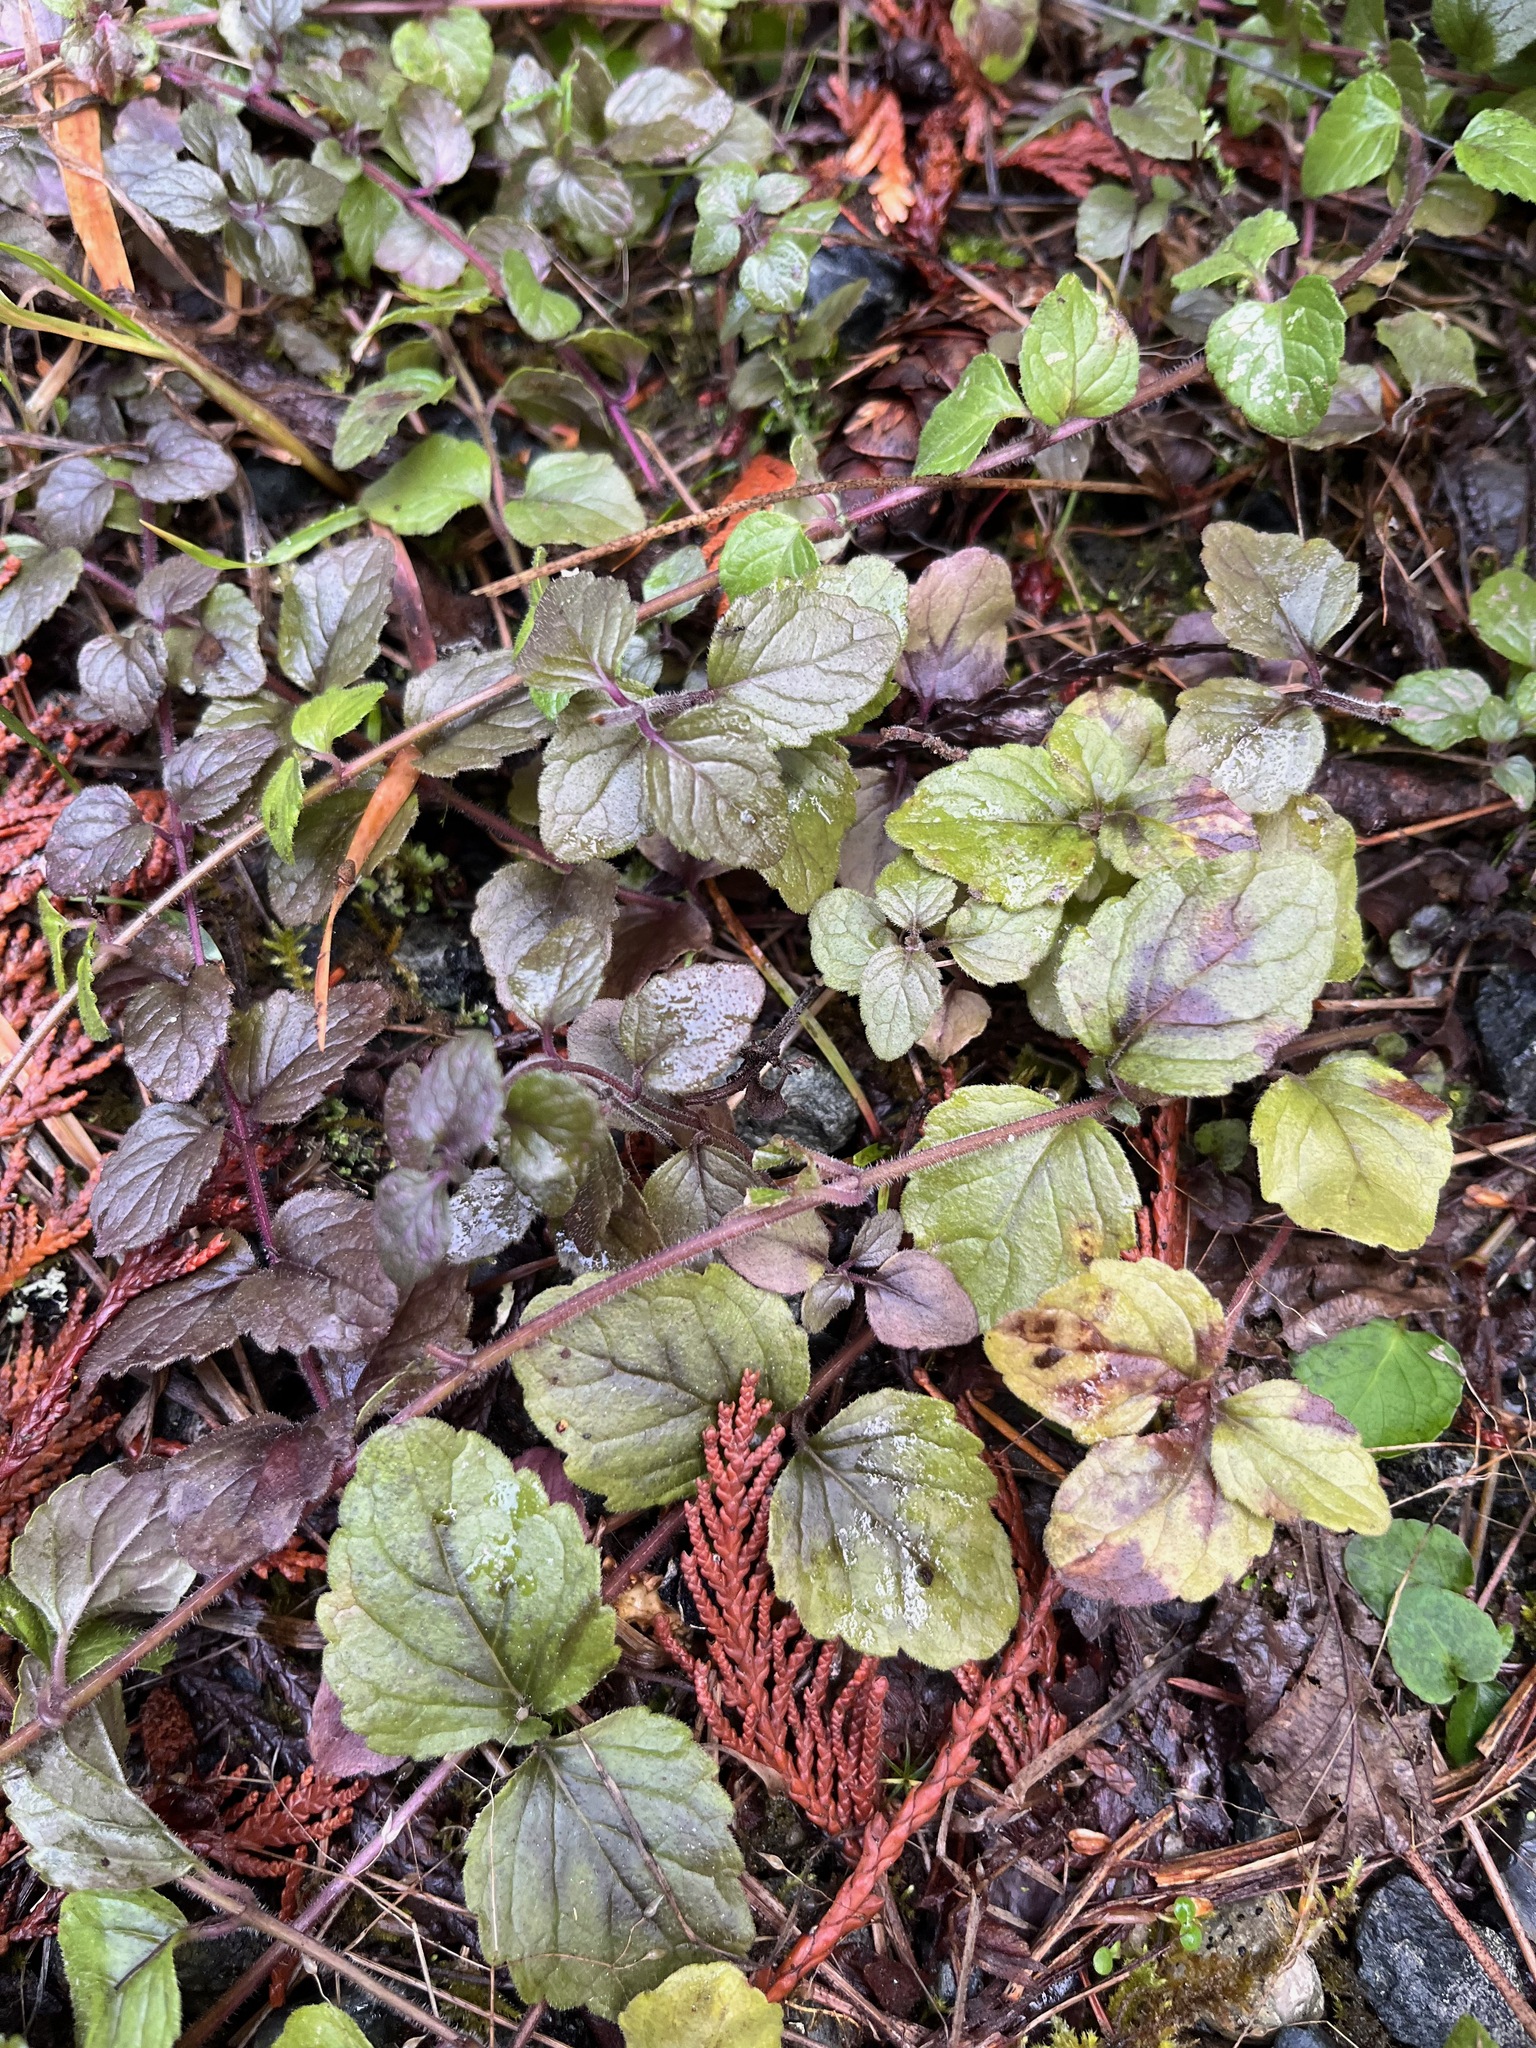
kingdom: Plantae
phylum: Tracheophyta
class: Magnoliopsida
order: Lamiales
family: Lamiaceae
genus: Micromeria
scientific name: Micromeria douglasii
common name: Yerba buena
